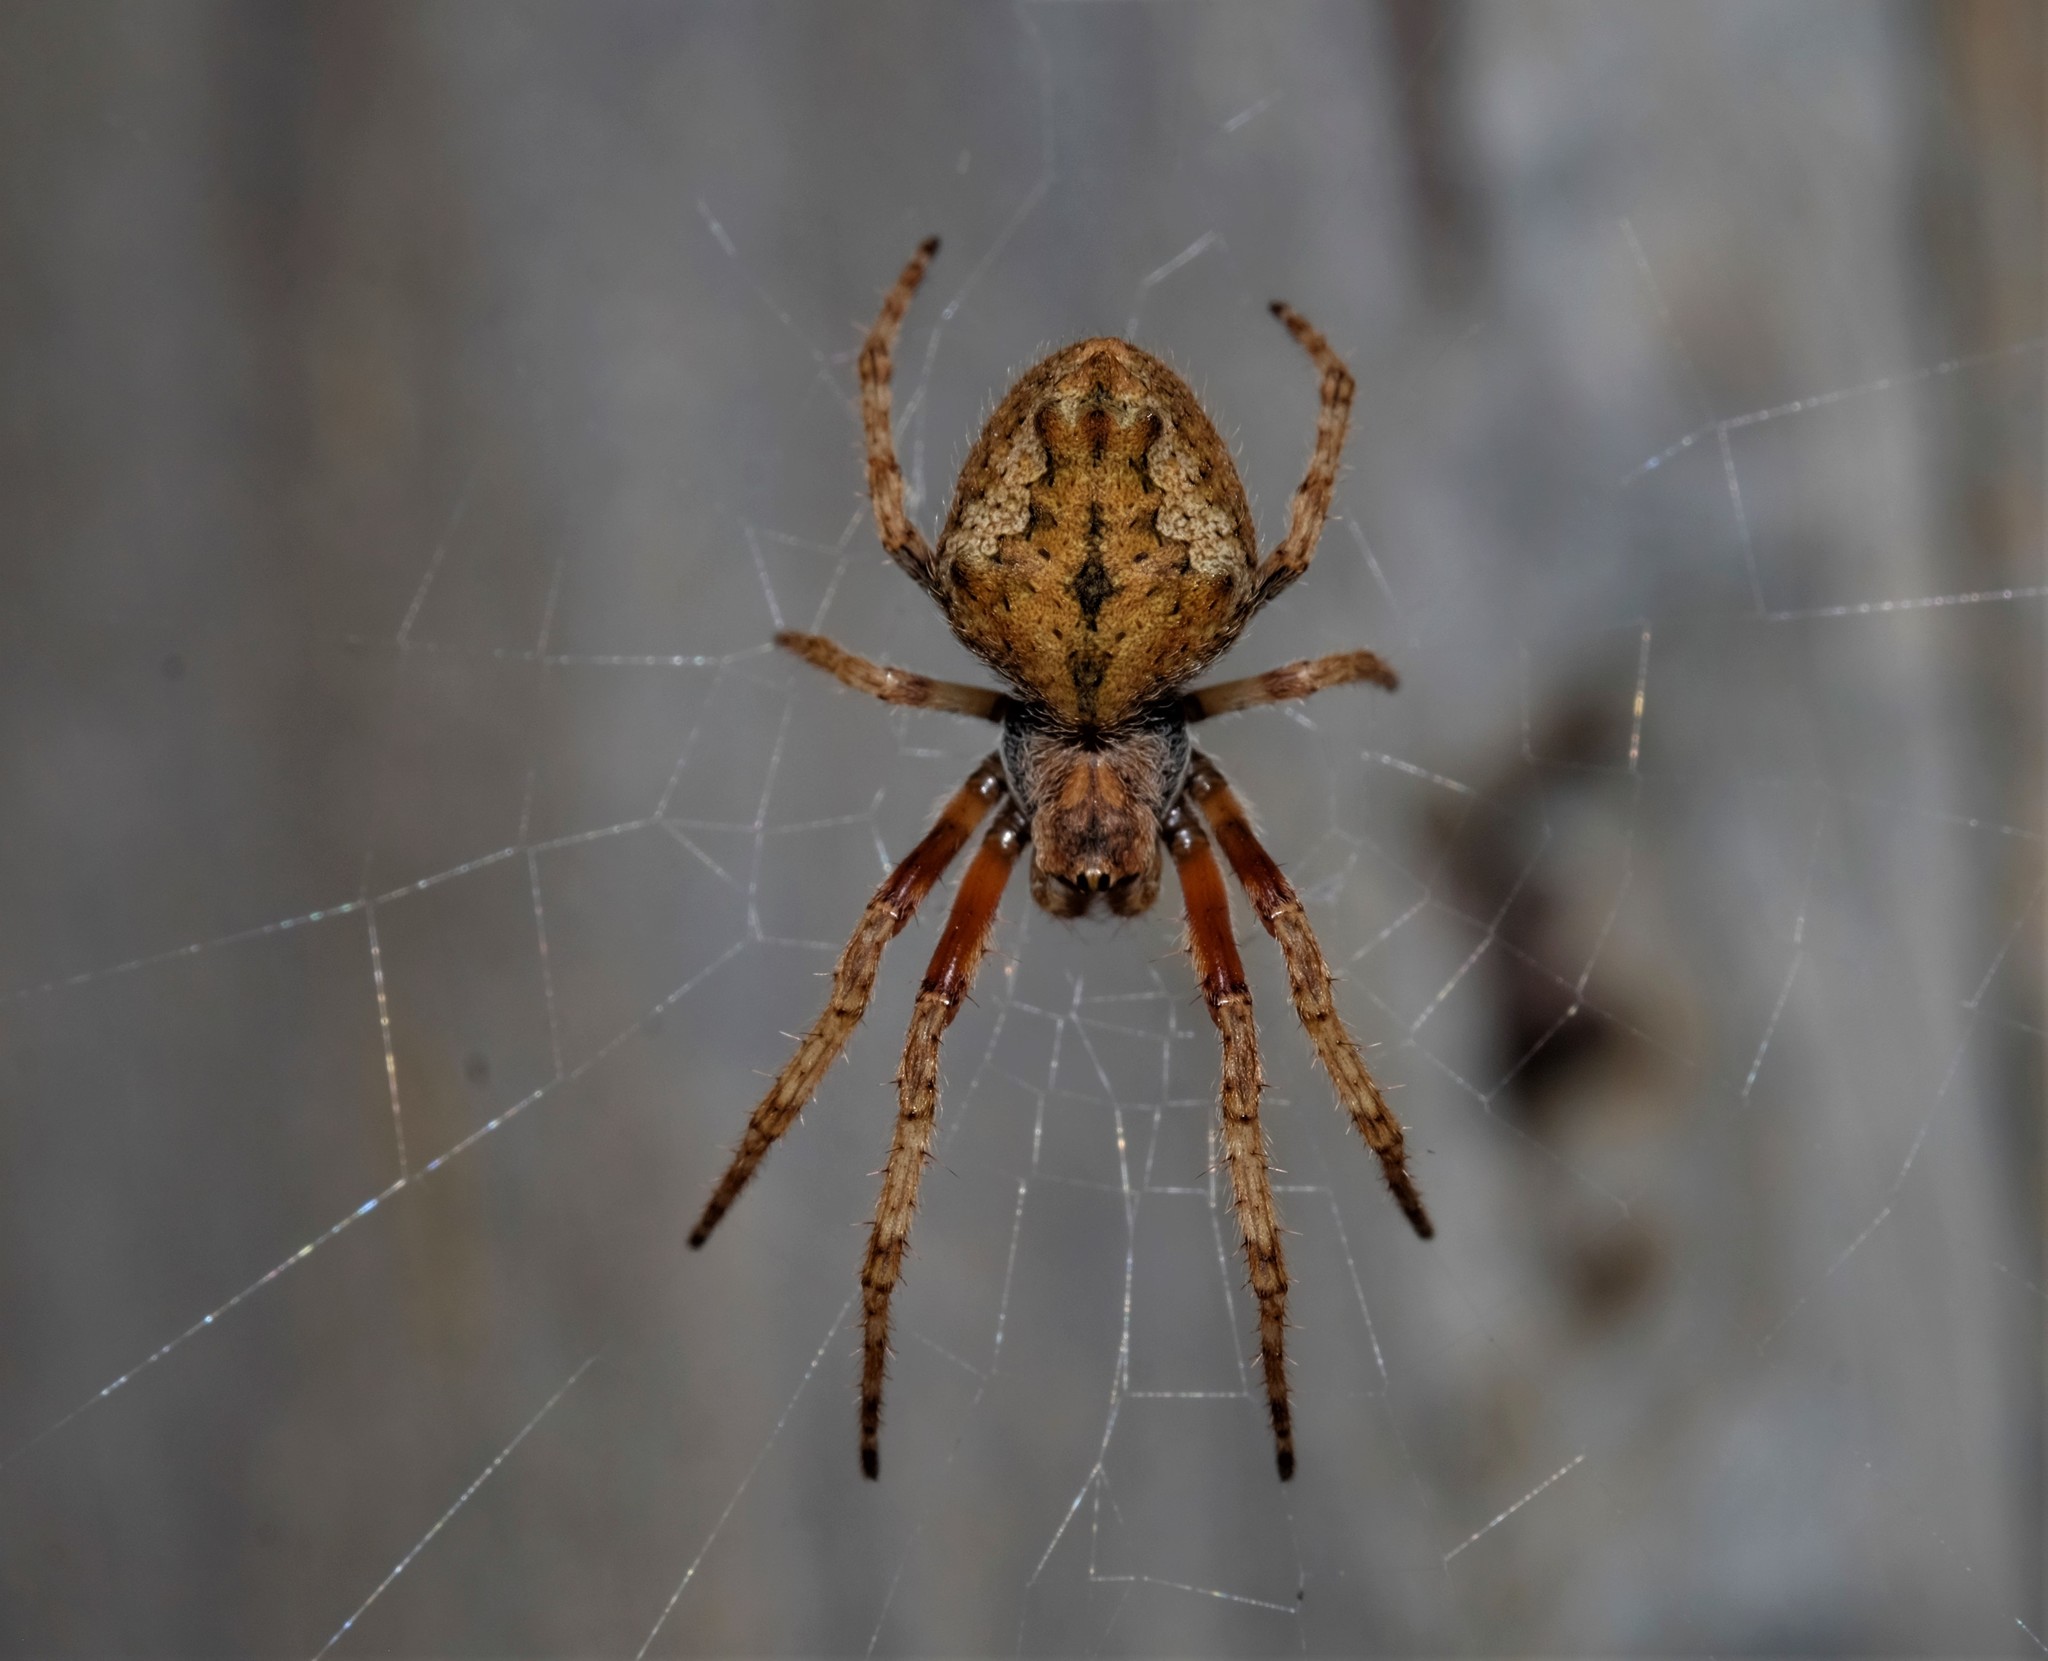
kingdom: Animalia
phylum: Arthropoda
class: Arachnida
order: Araneae
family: Araneidae
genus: Eriophora
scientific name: Eriophora pustulosa
